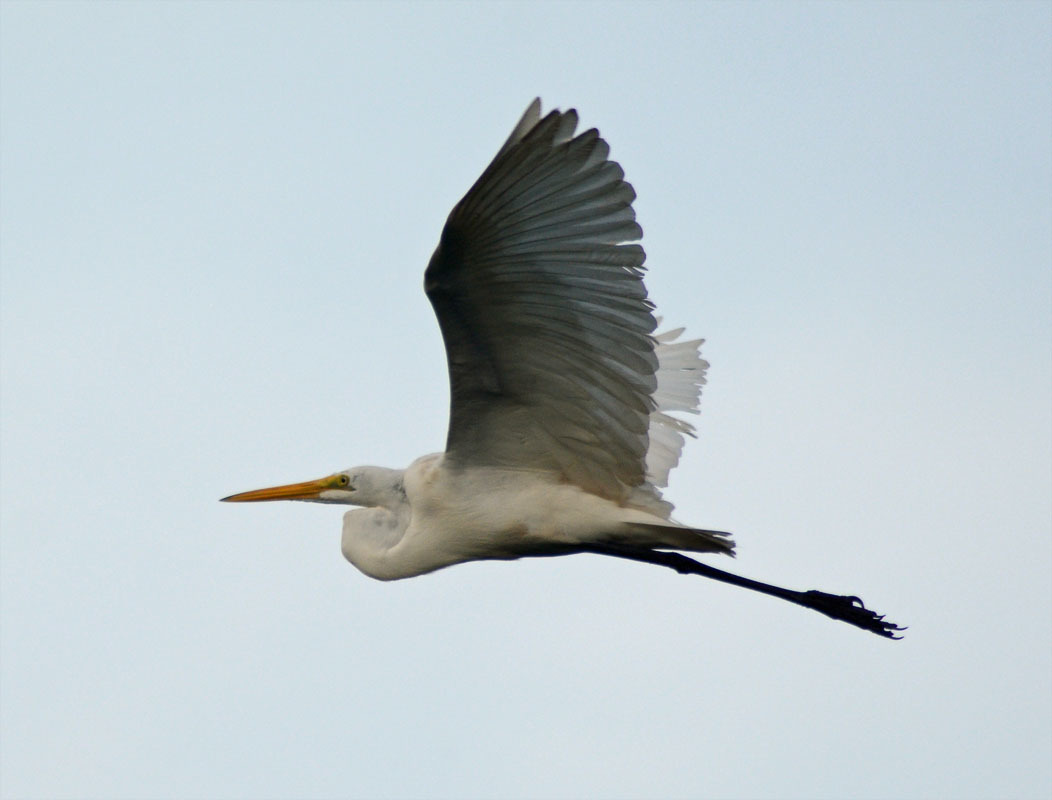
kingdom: Animalia
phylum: Chordata
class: Aves
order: Pelecaniformes
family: Ardeidae
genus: Ardea
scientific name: Ardea alba
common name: Great egret
